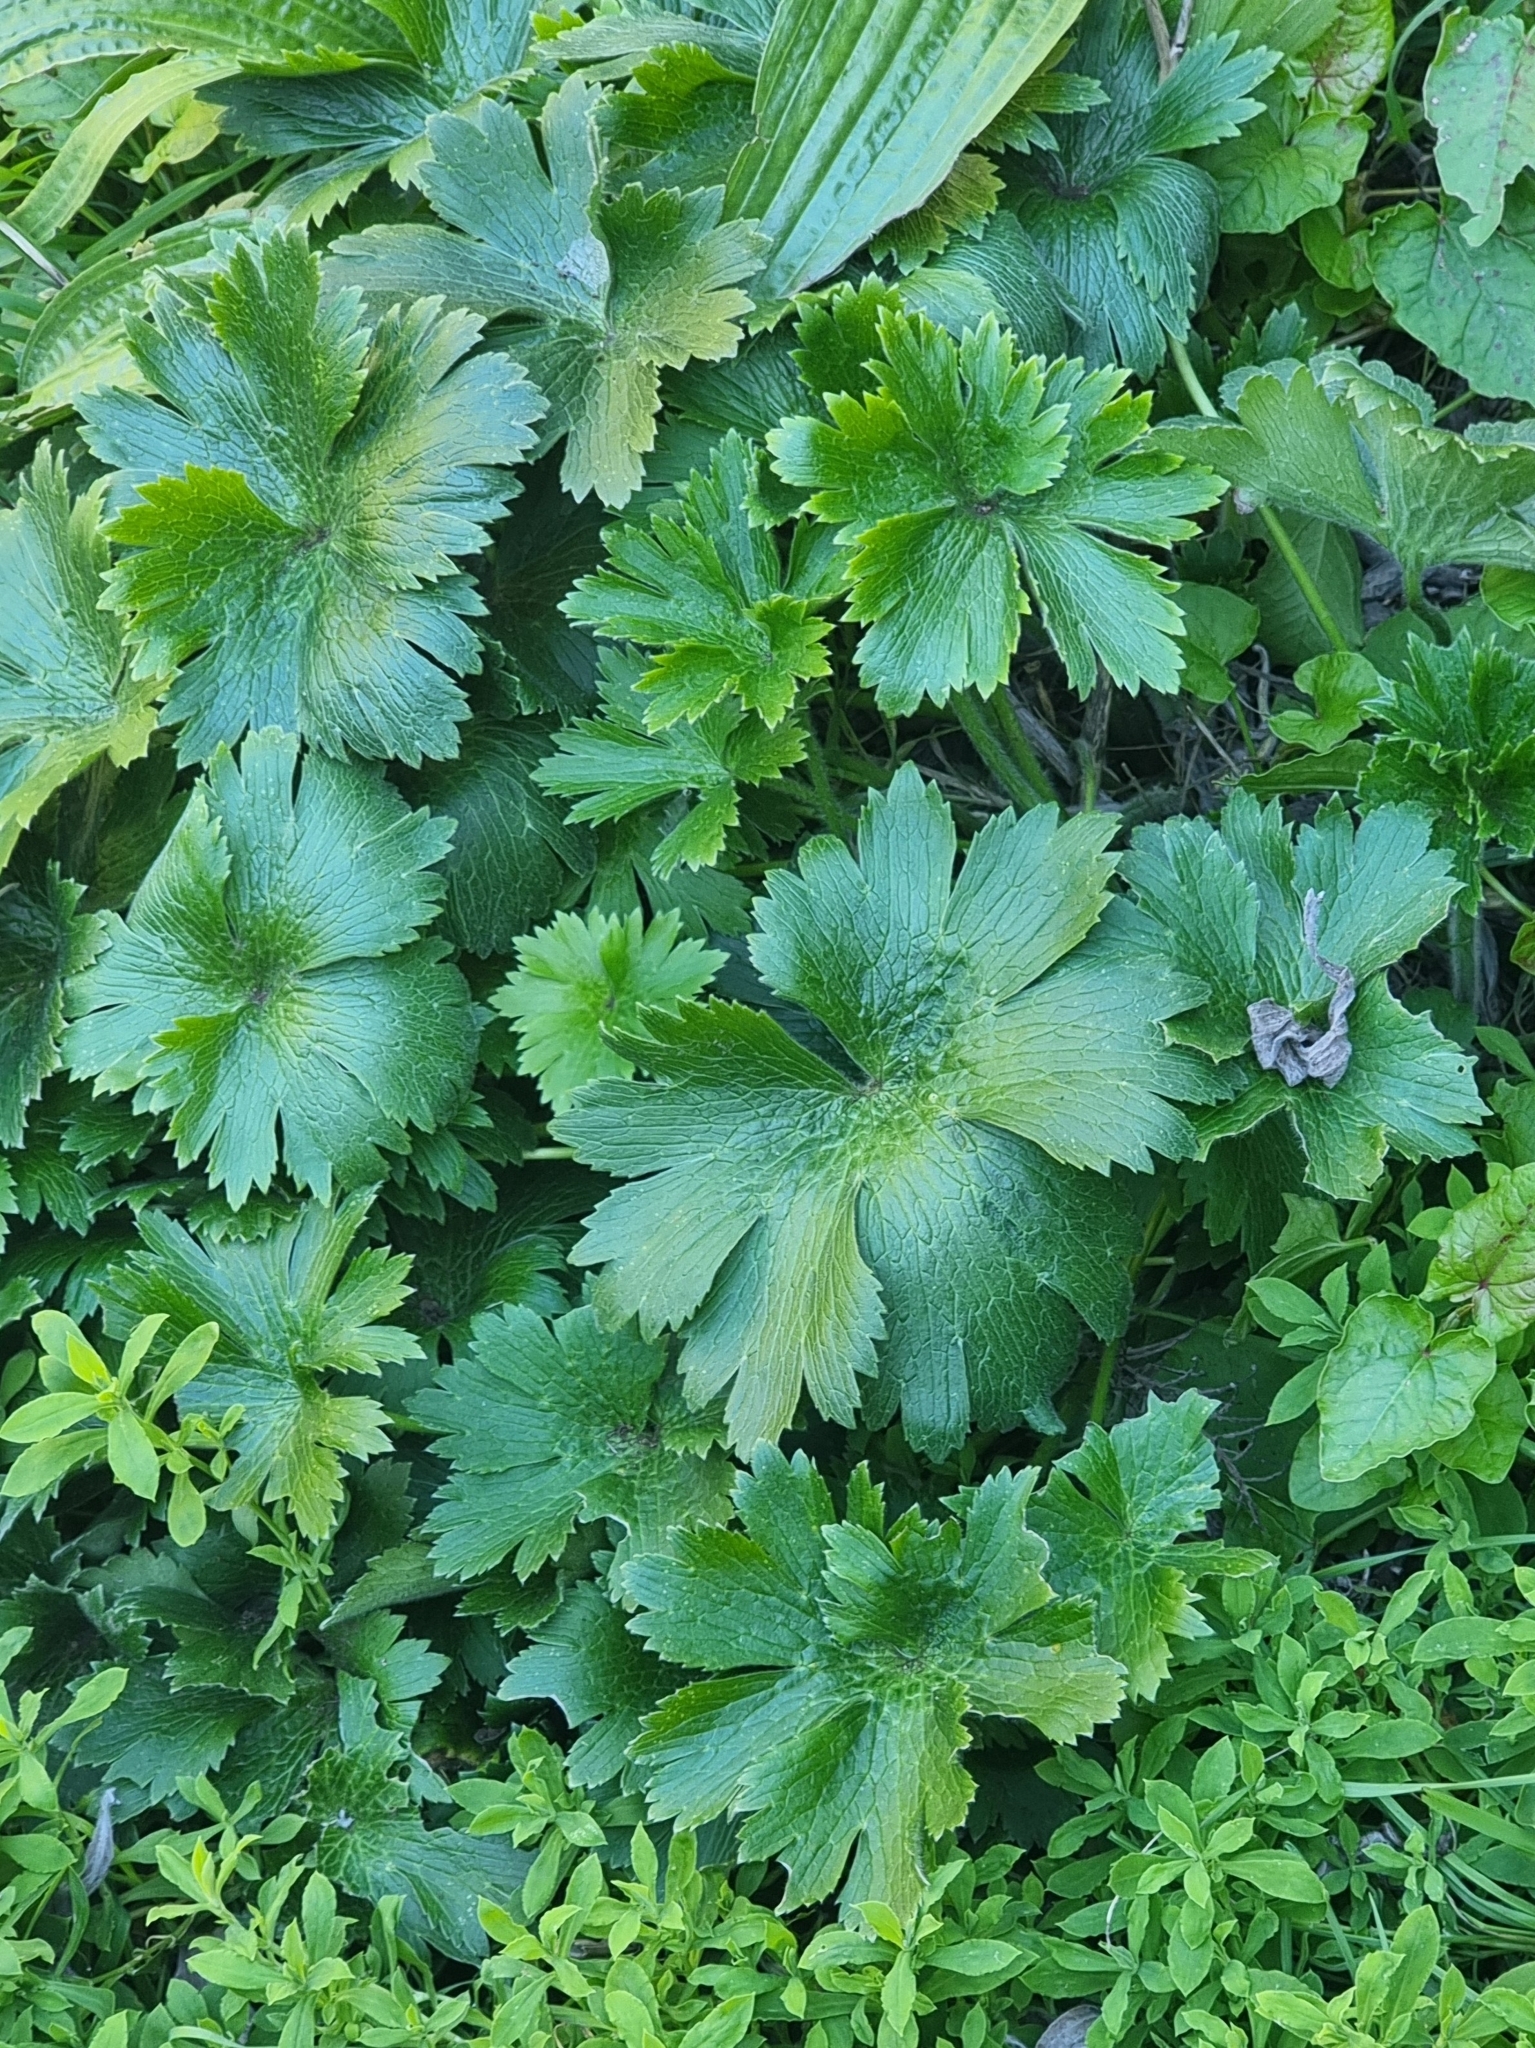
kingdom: Plantae
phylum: Tracheophyta
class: Magnoliopsida
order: Ranunculales
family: Ranunculaceae
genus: Ranunculus
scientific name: Ranunculus cortusifolius
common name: Azores buttercup
